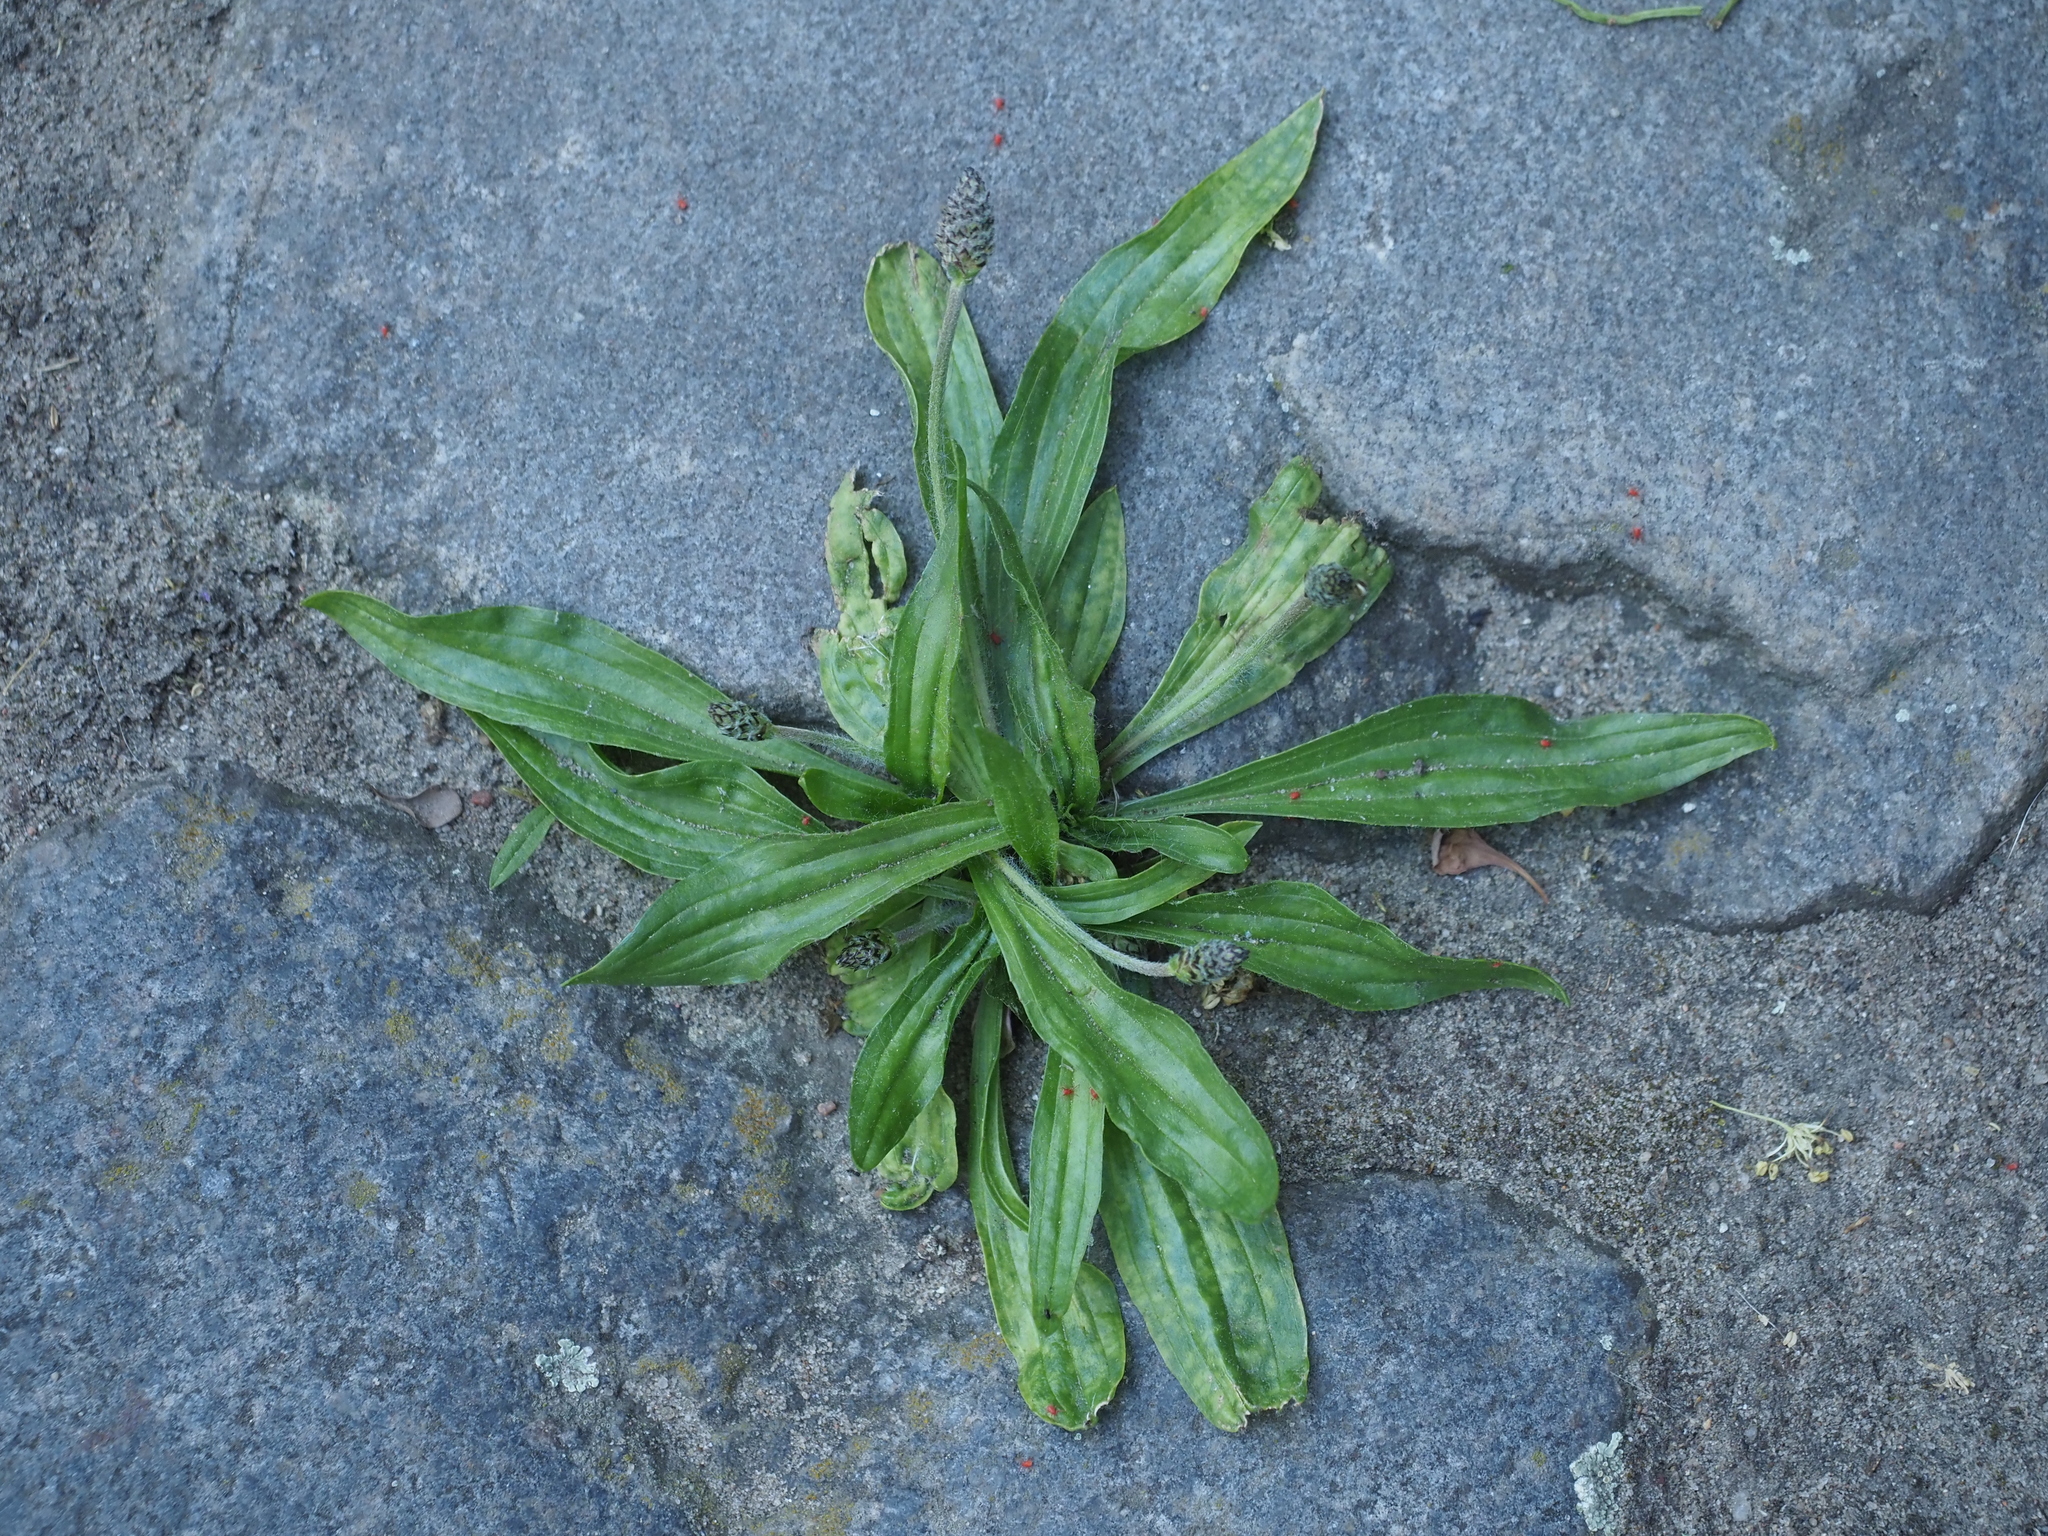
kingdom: Plantae
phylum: Tracheophyta
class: Magnoliopsida
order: Lamiales
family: Plantaginaceae
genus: Plantago
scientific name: Plantago lanceolata
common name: Ribwort plantain
